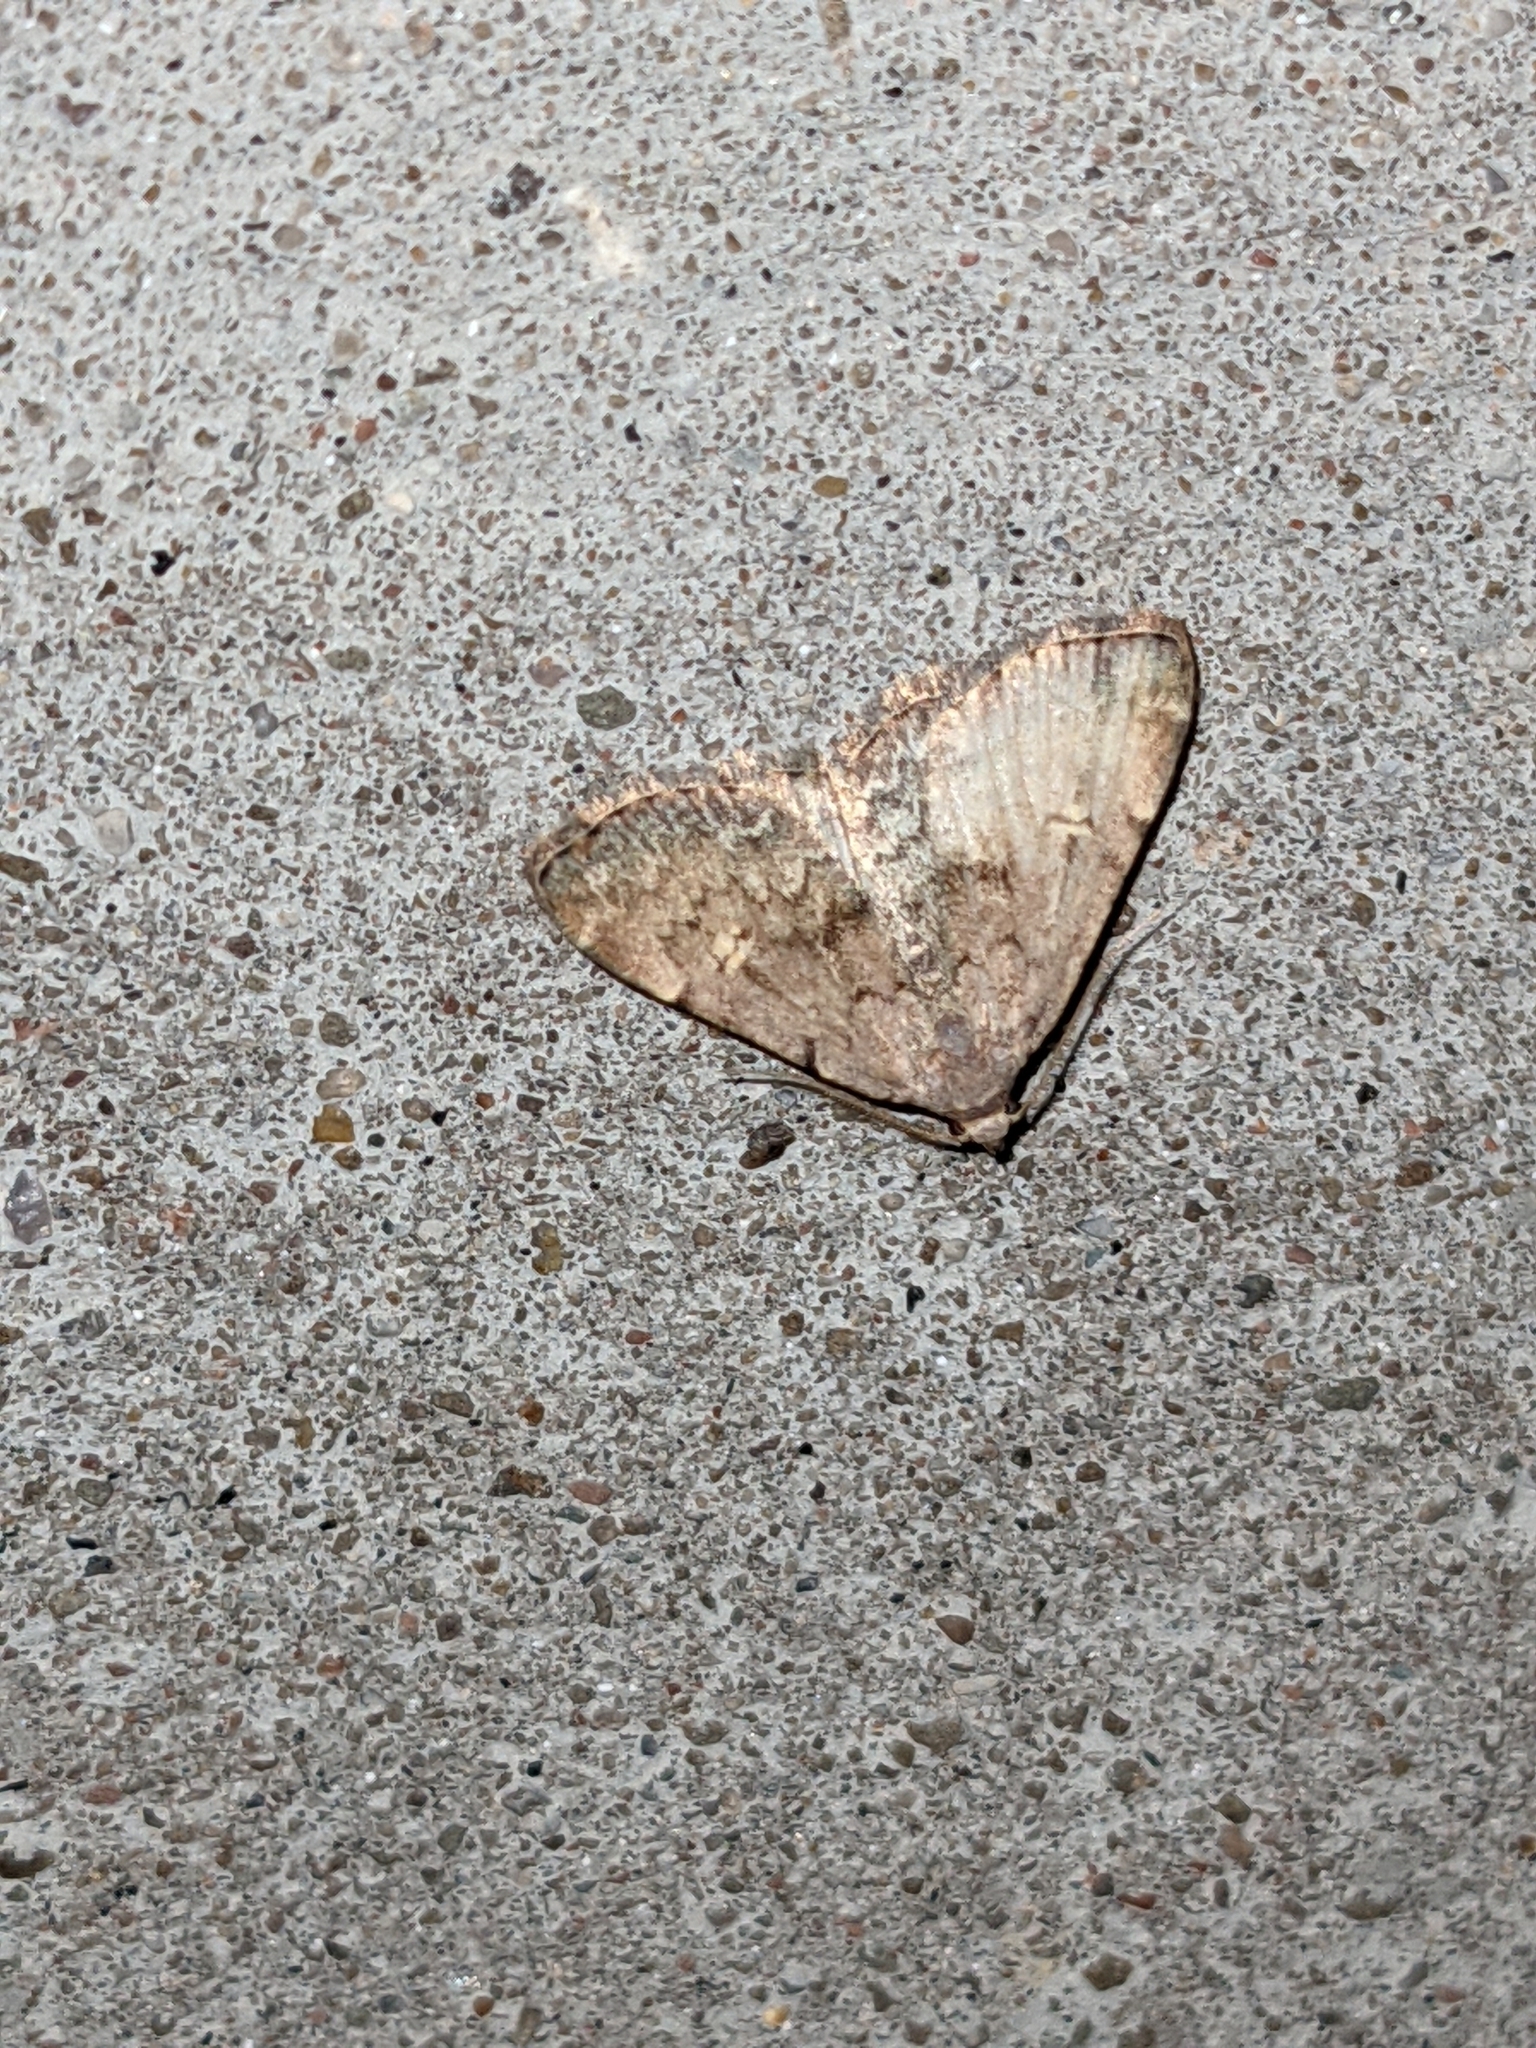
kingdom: Animalia
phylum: Arthropoda
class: Insecta
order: Lepidoptera
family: Erebidae
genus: Idia
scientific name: Idia aemula
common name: Common idia moth
